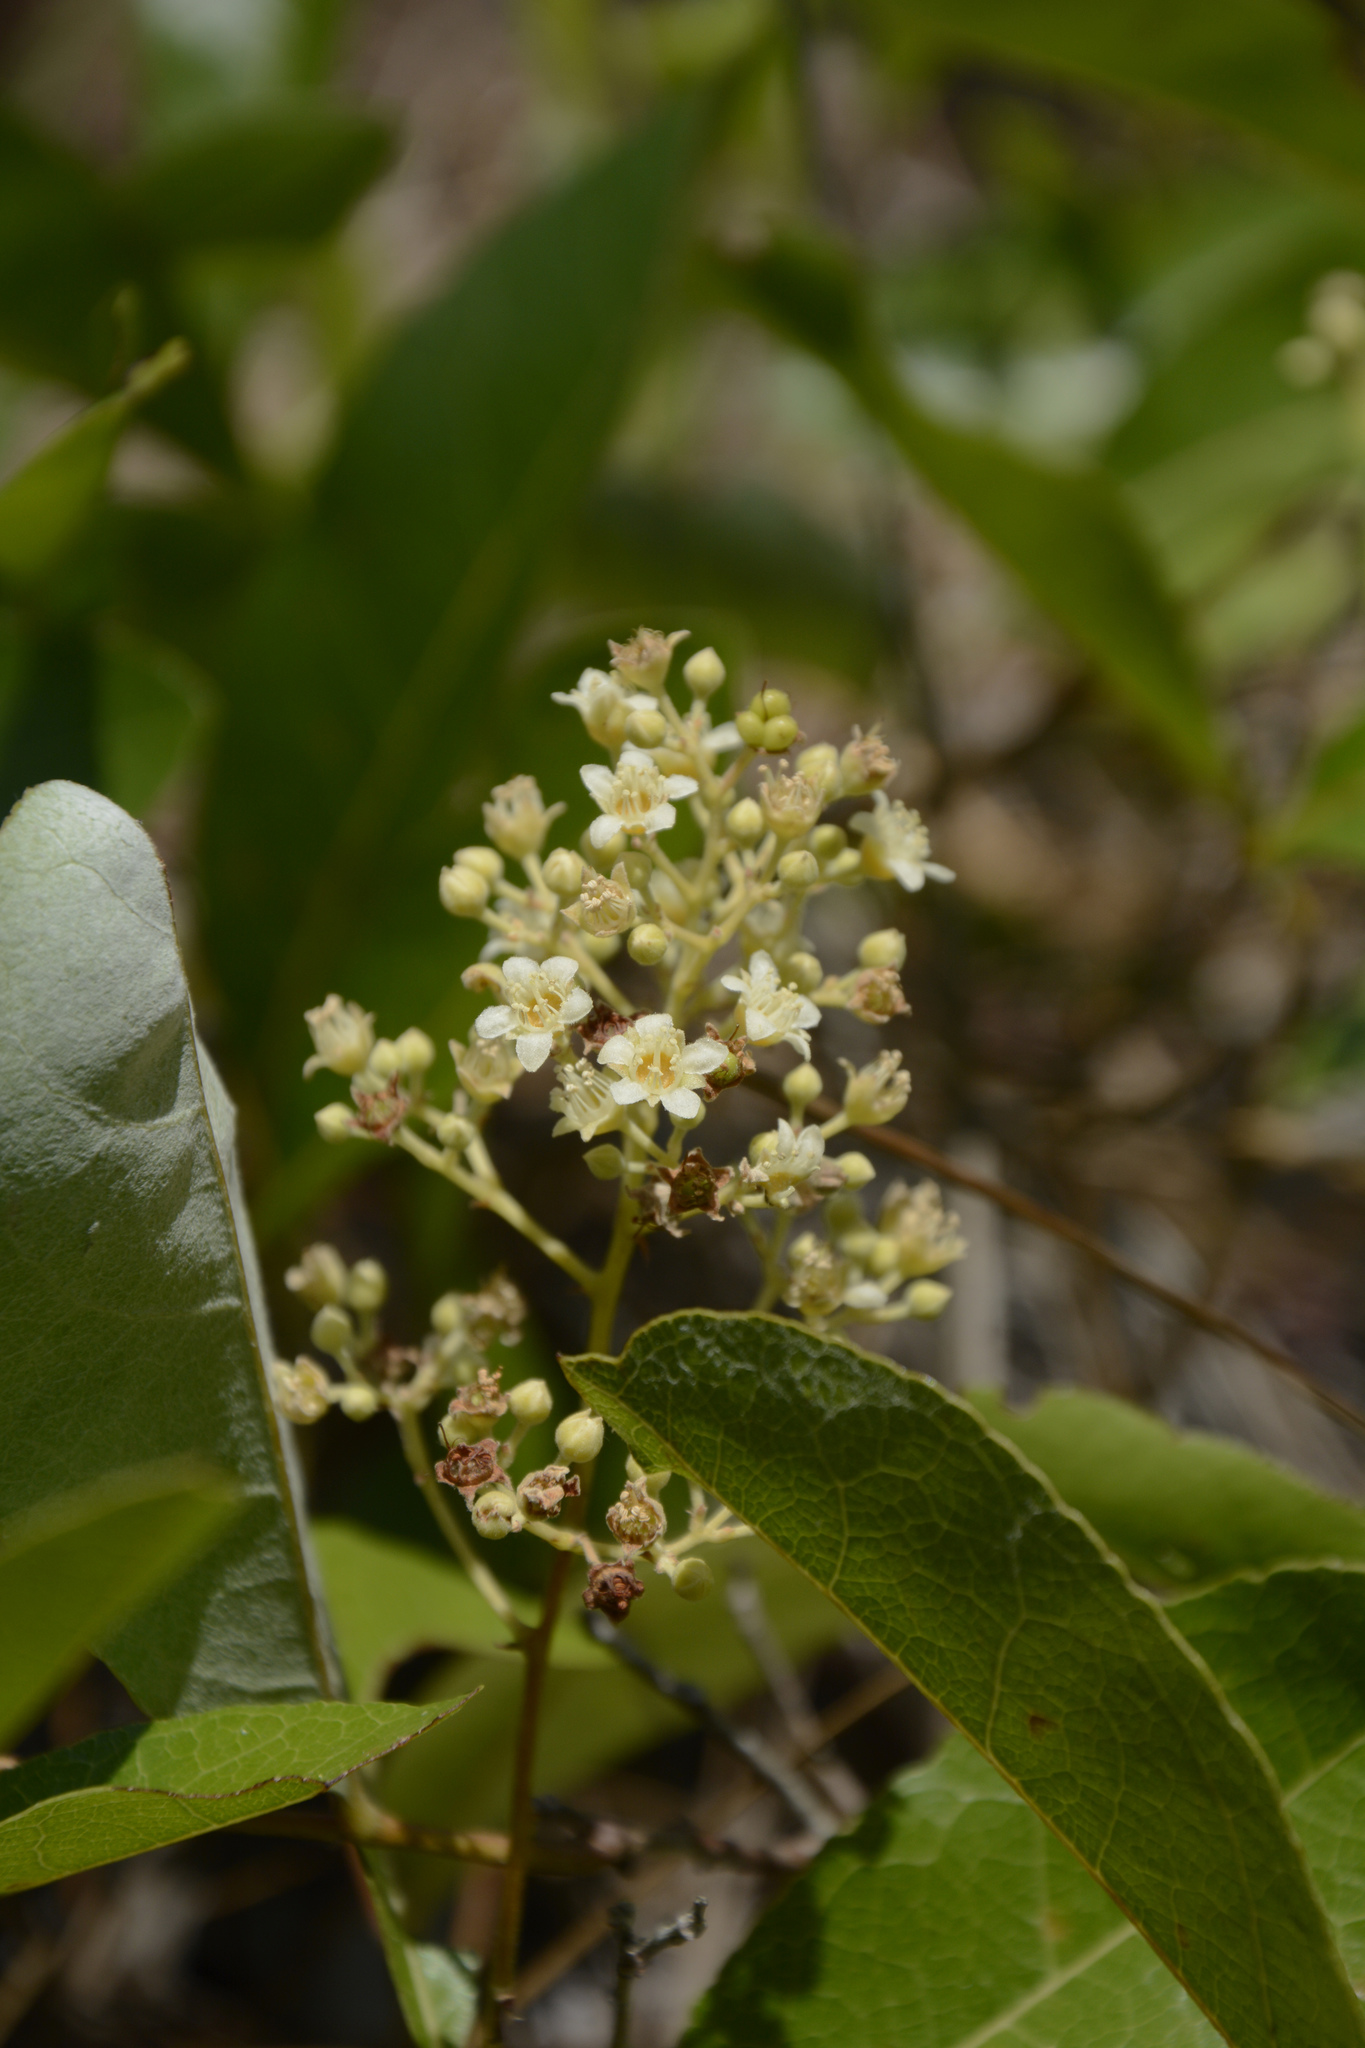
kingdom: Plantae
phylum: Tracheophyta
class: Magnoliopsida
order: Malpighiales
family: Chrysobalanaceae
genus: Geobalanus
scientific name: Geobalanus oblongifolius
